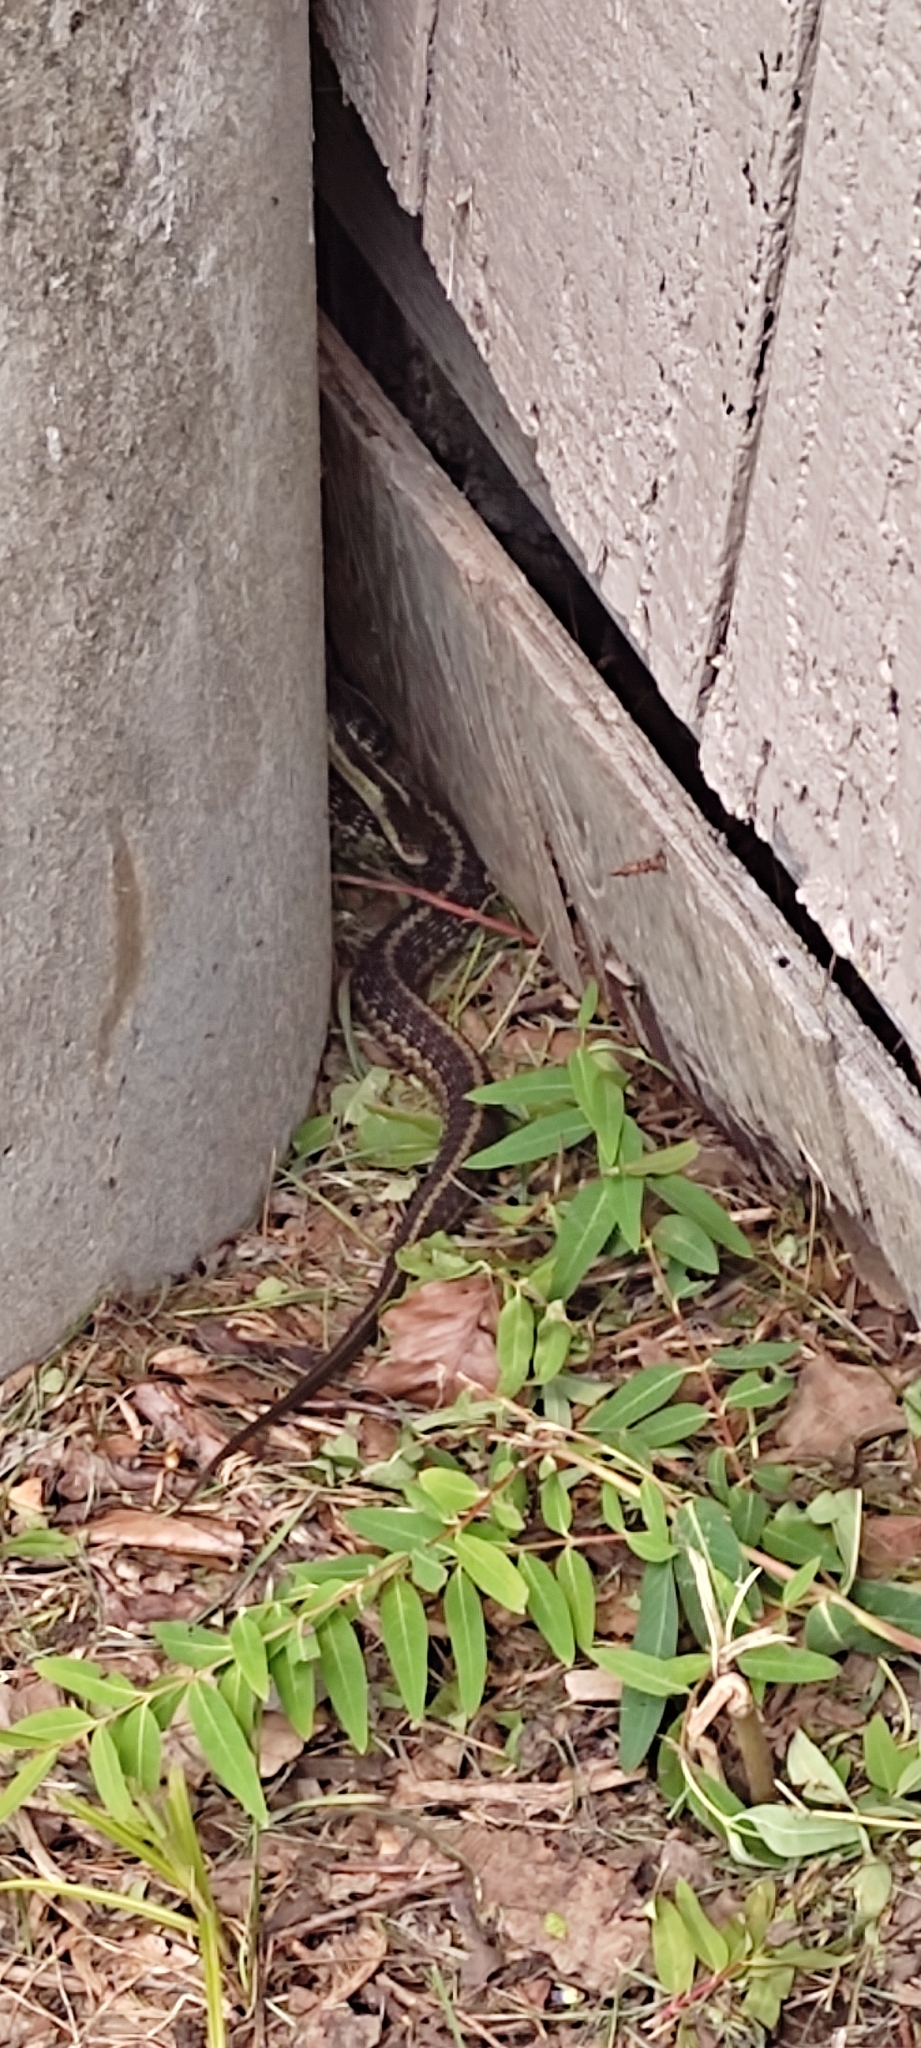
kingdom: Animalia
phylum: Chordata
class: Squamata
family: Colubridae
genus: Thamnophis
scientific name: Thamnophis sirtalis
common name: Common garter snake
